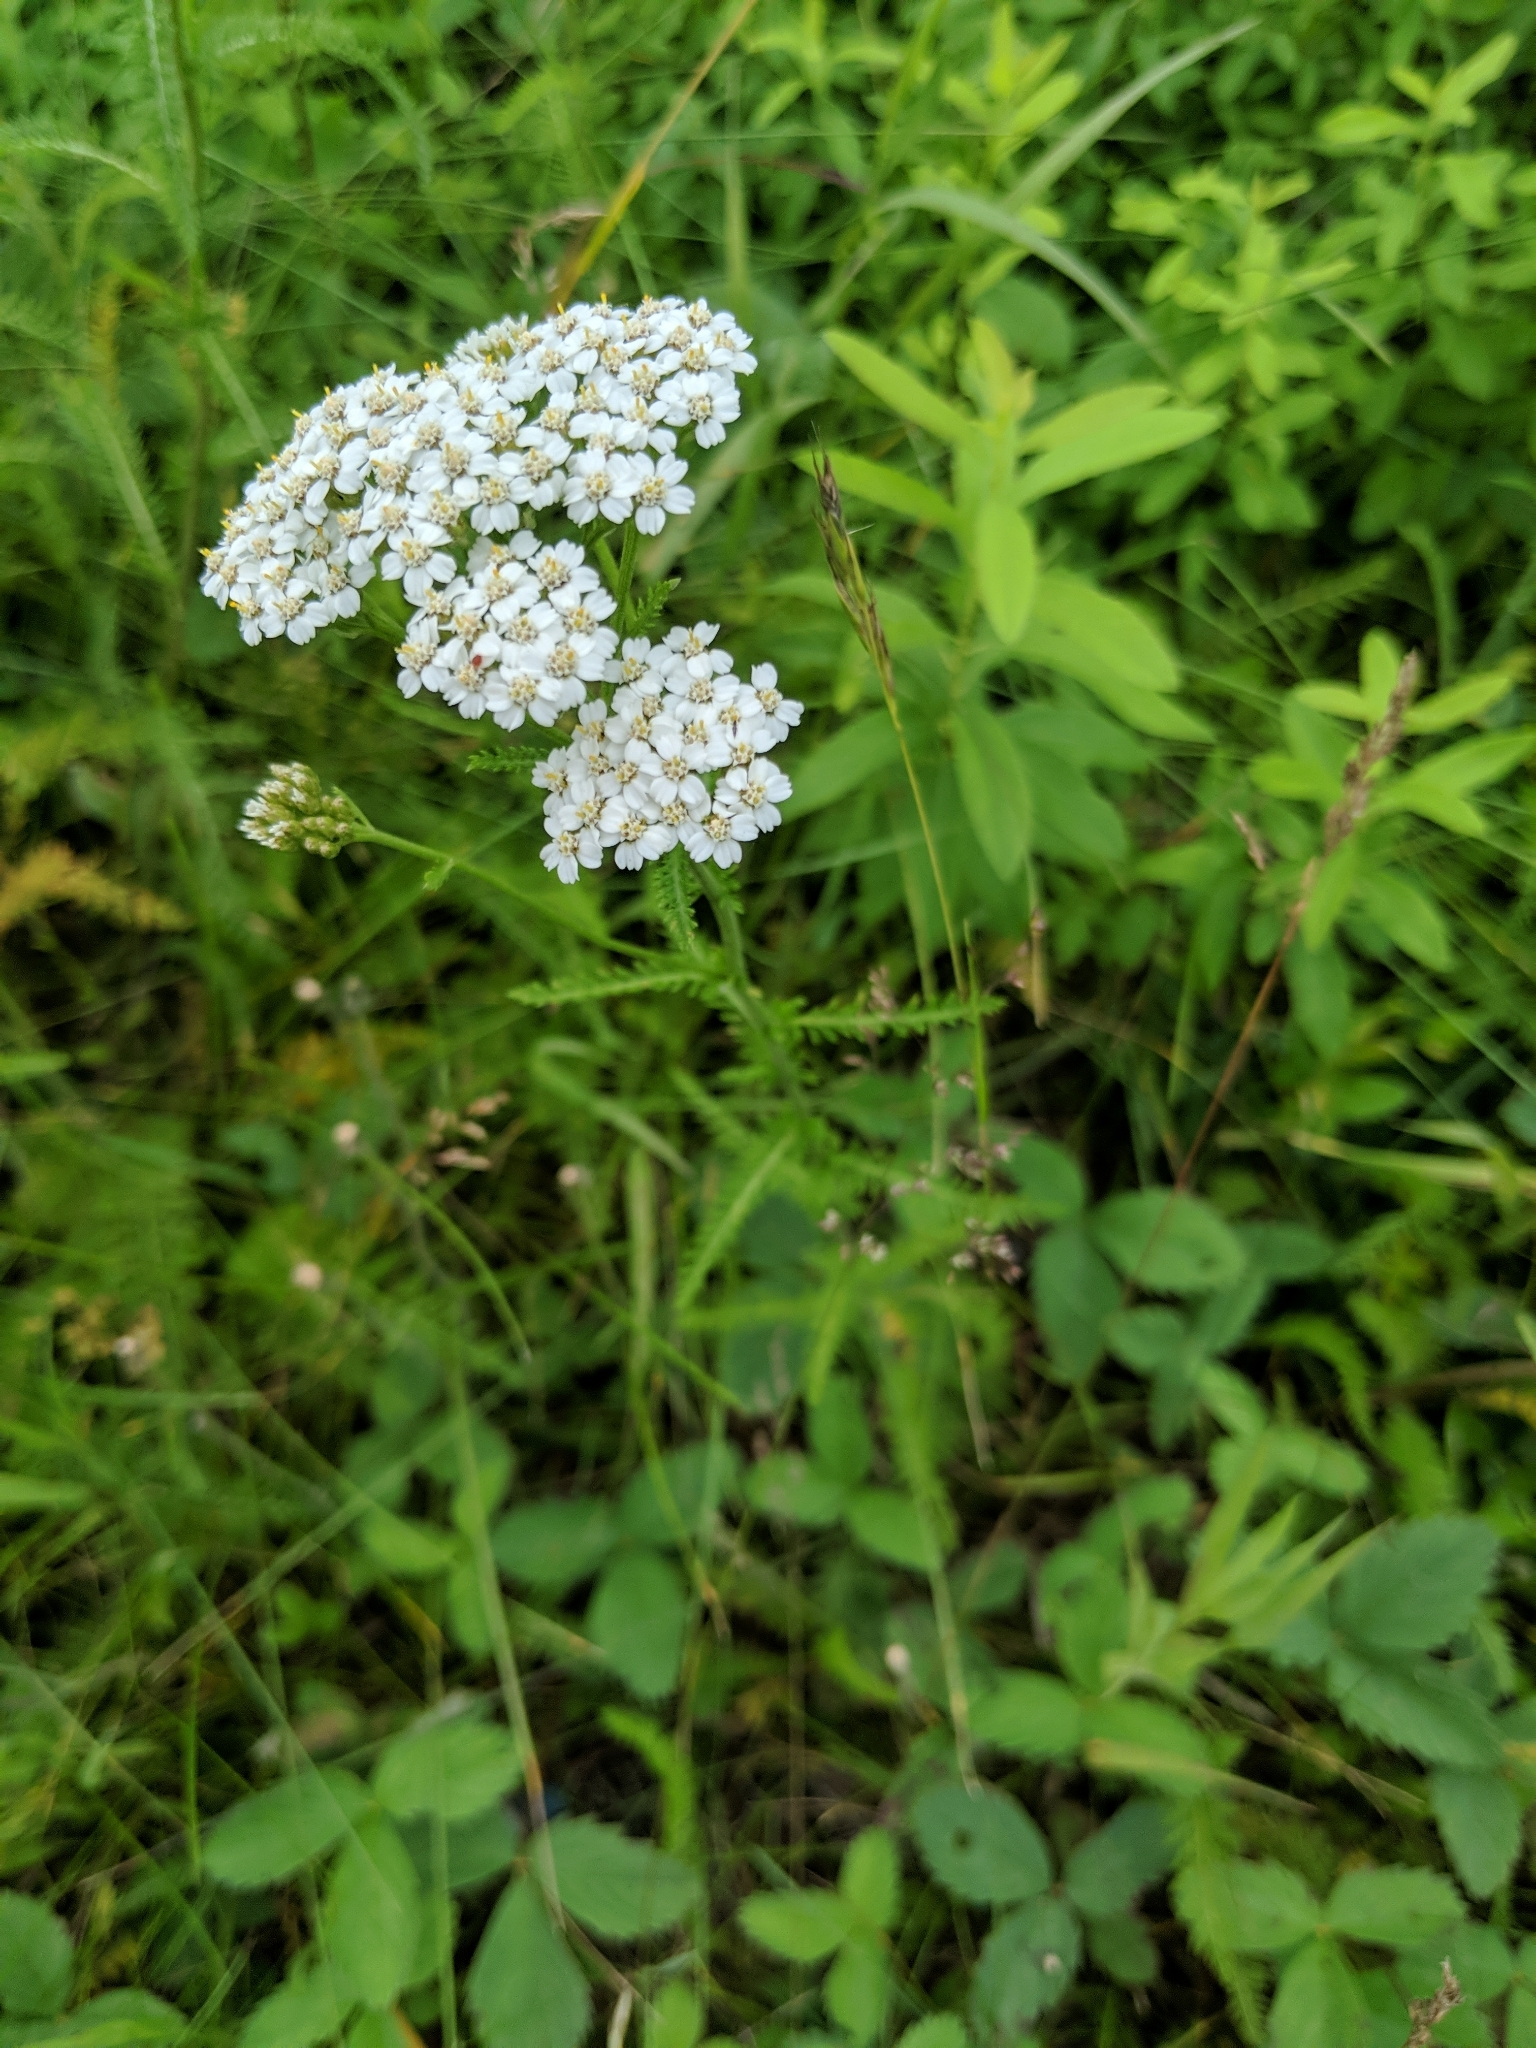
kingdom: Plantae
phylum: Tracheophyta
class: Magnoliopsida
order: Asterales
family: Asteraceae
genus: Achillea
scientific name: Achillea millefolium
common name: Yarrow
